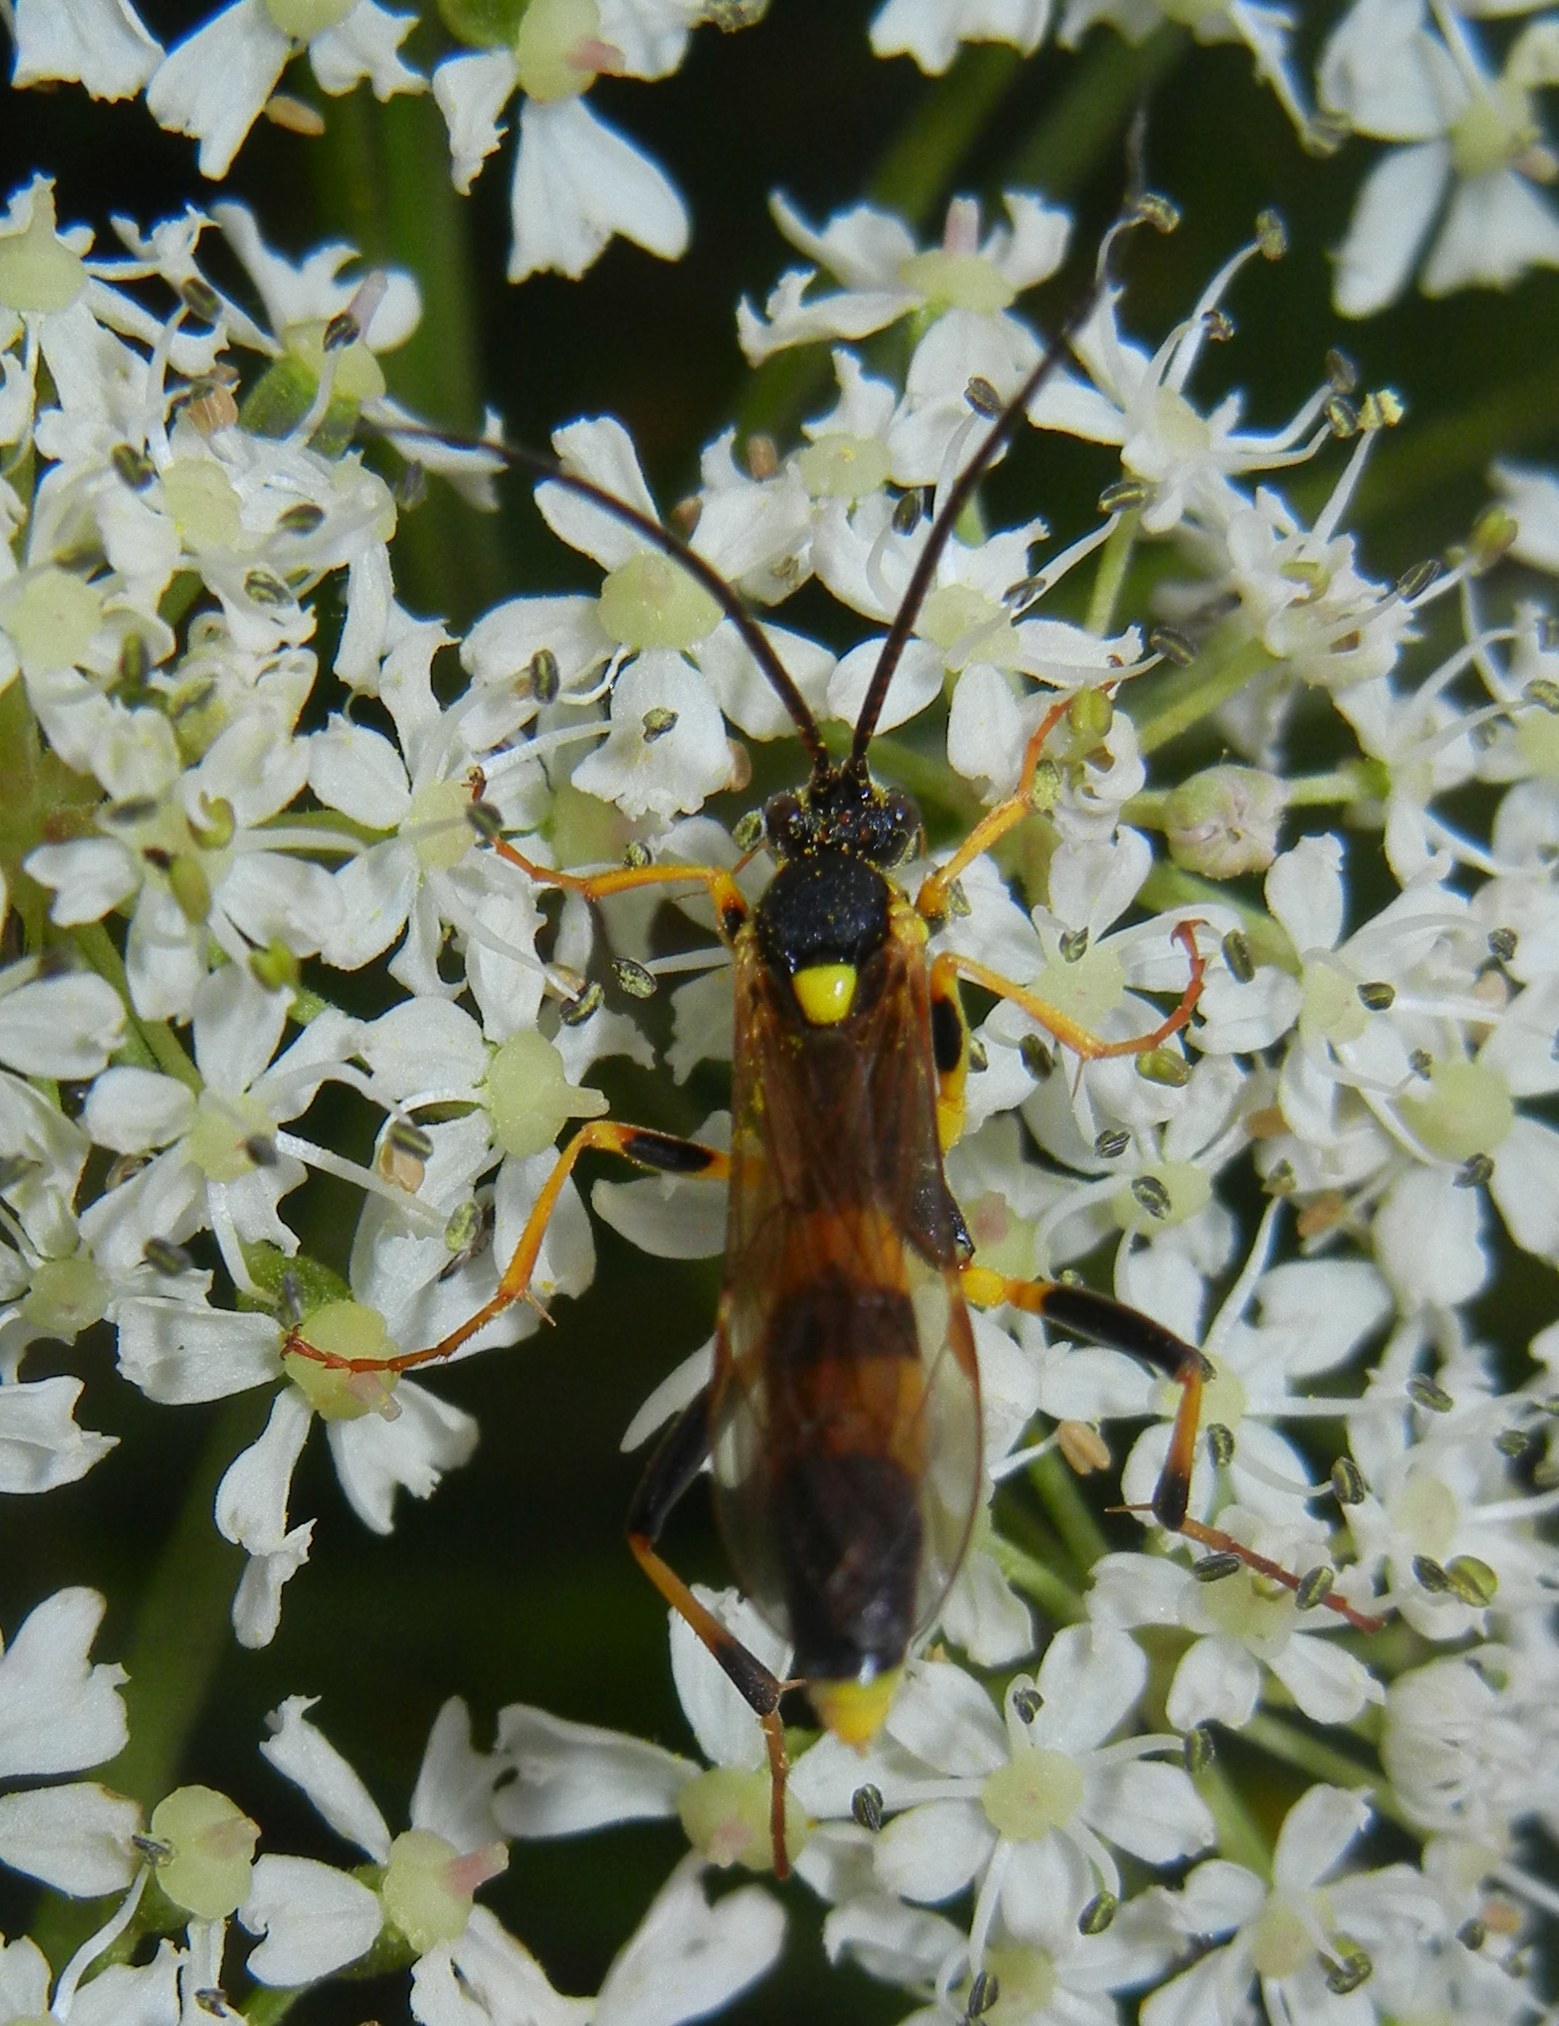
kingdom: Animalia
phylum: Arthropoda
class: Insecta
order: Hymenoptera
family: Ichneumonidae
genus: Amblyteles
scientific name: Amblyteles armatorius
